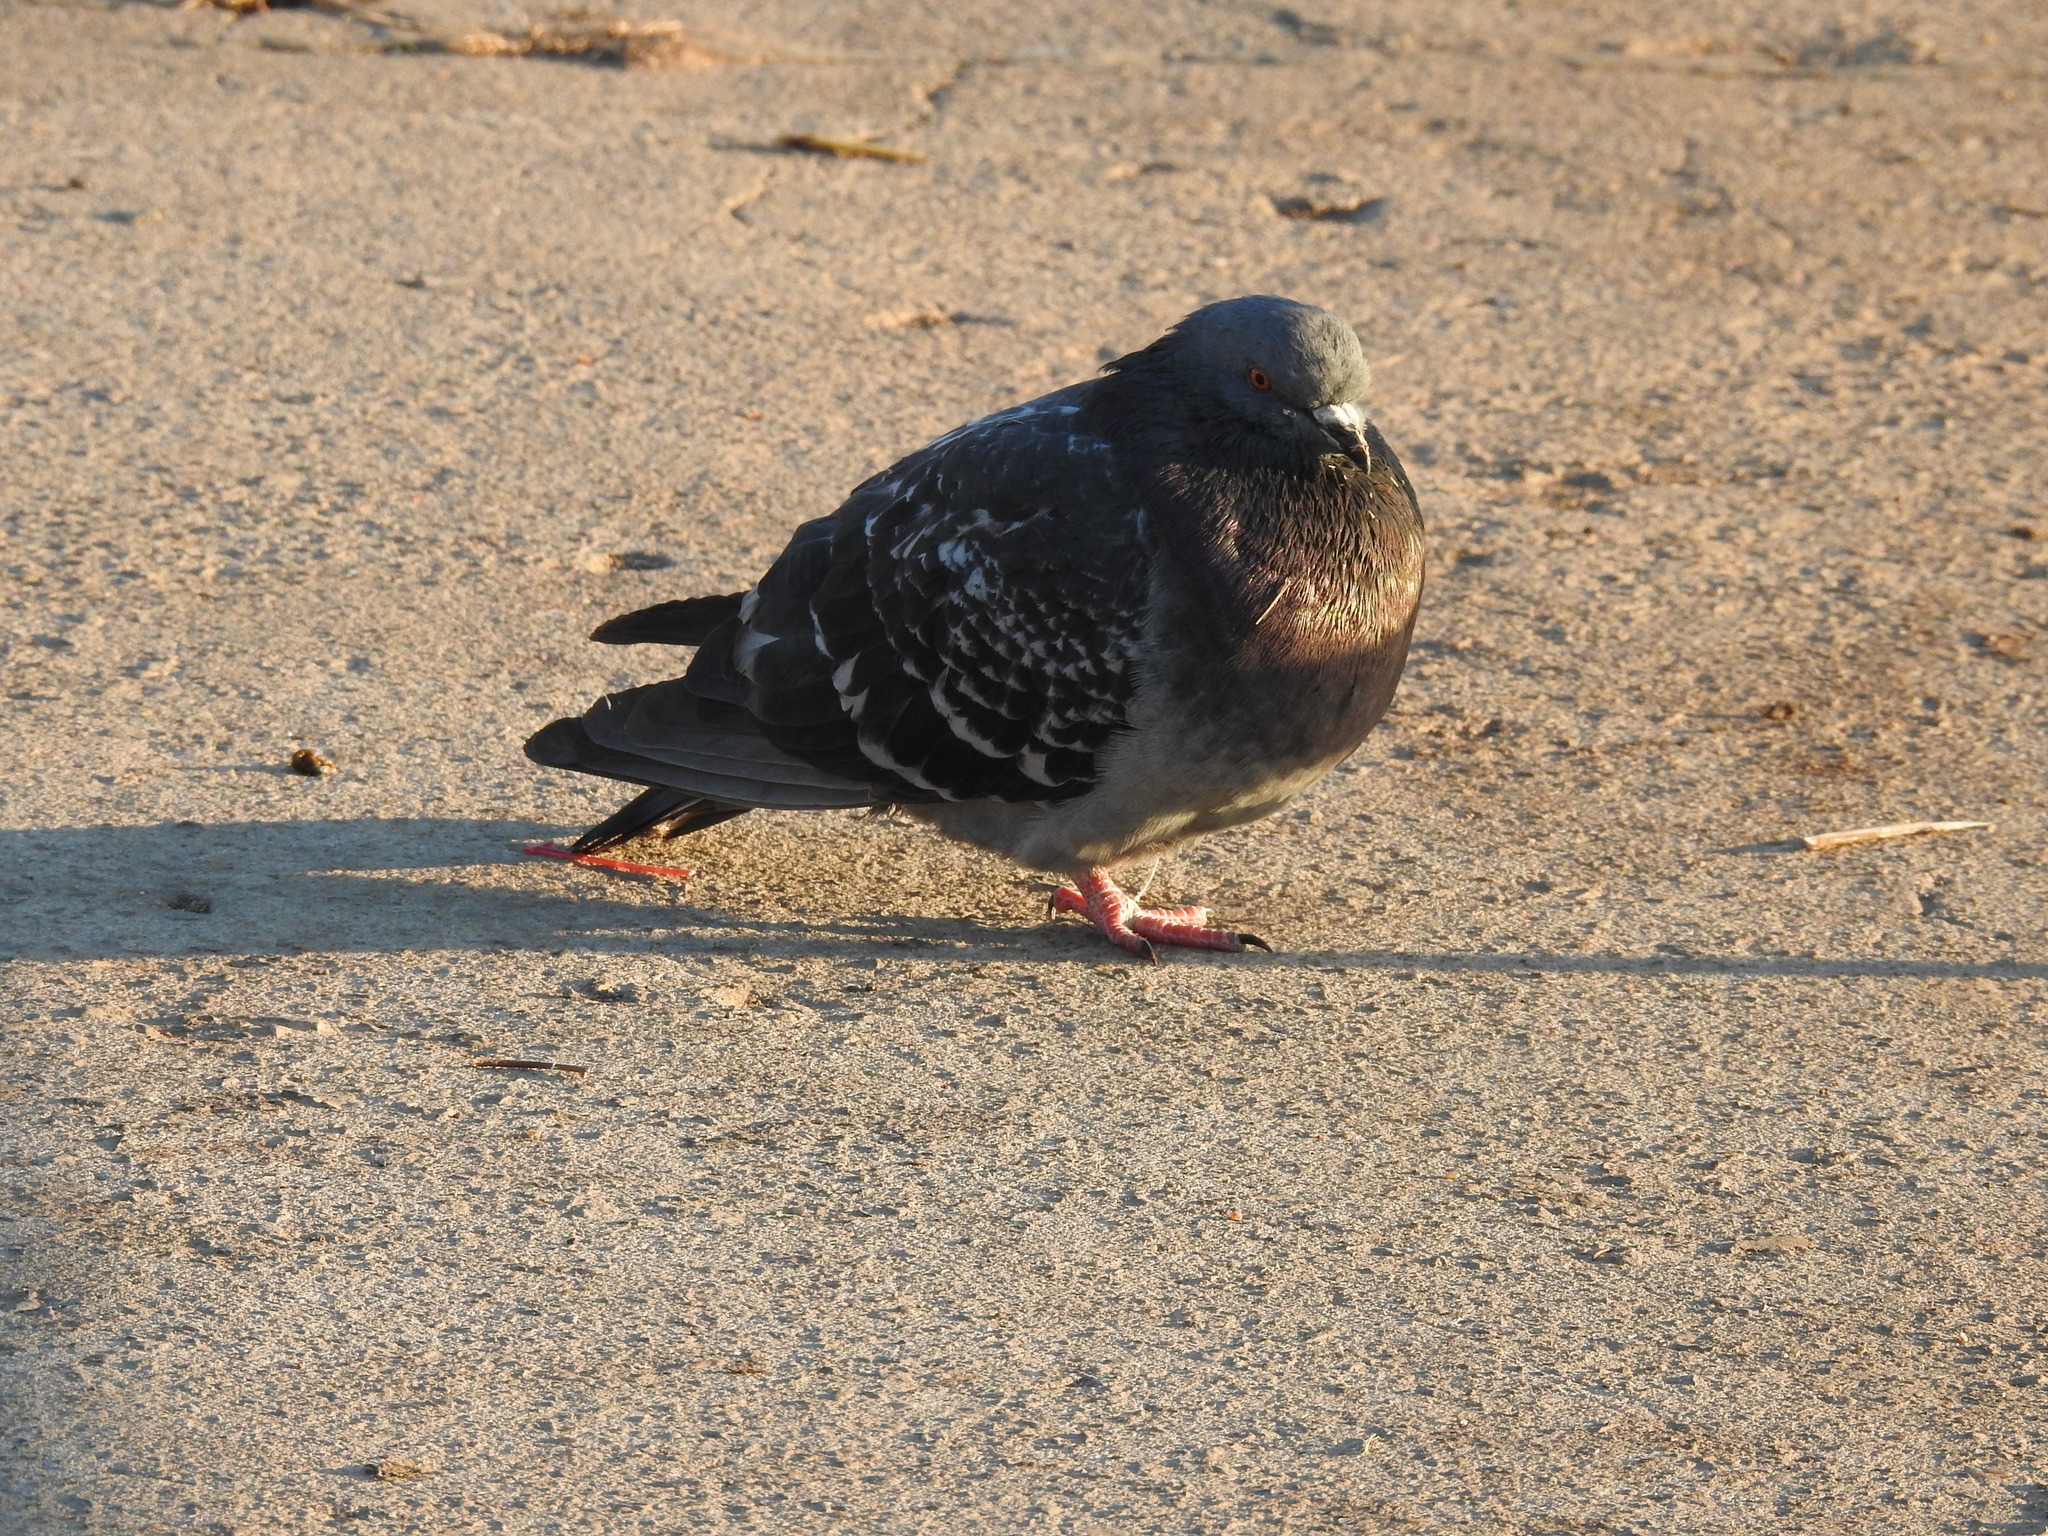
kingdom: Animalia
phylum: Chordata
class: Aves
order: Columbiformes
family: Columbidae
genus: Columba
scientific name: Columba livia
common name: Rock pigeon
